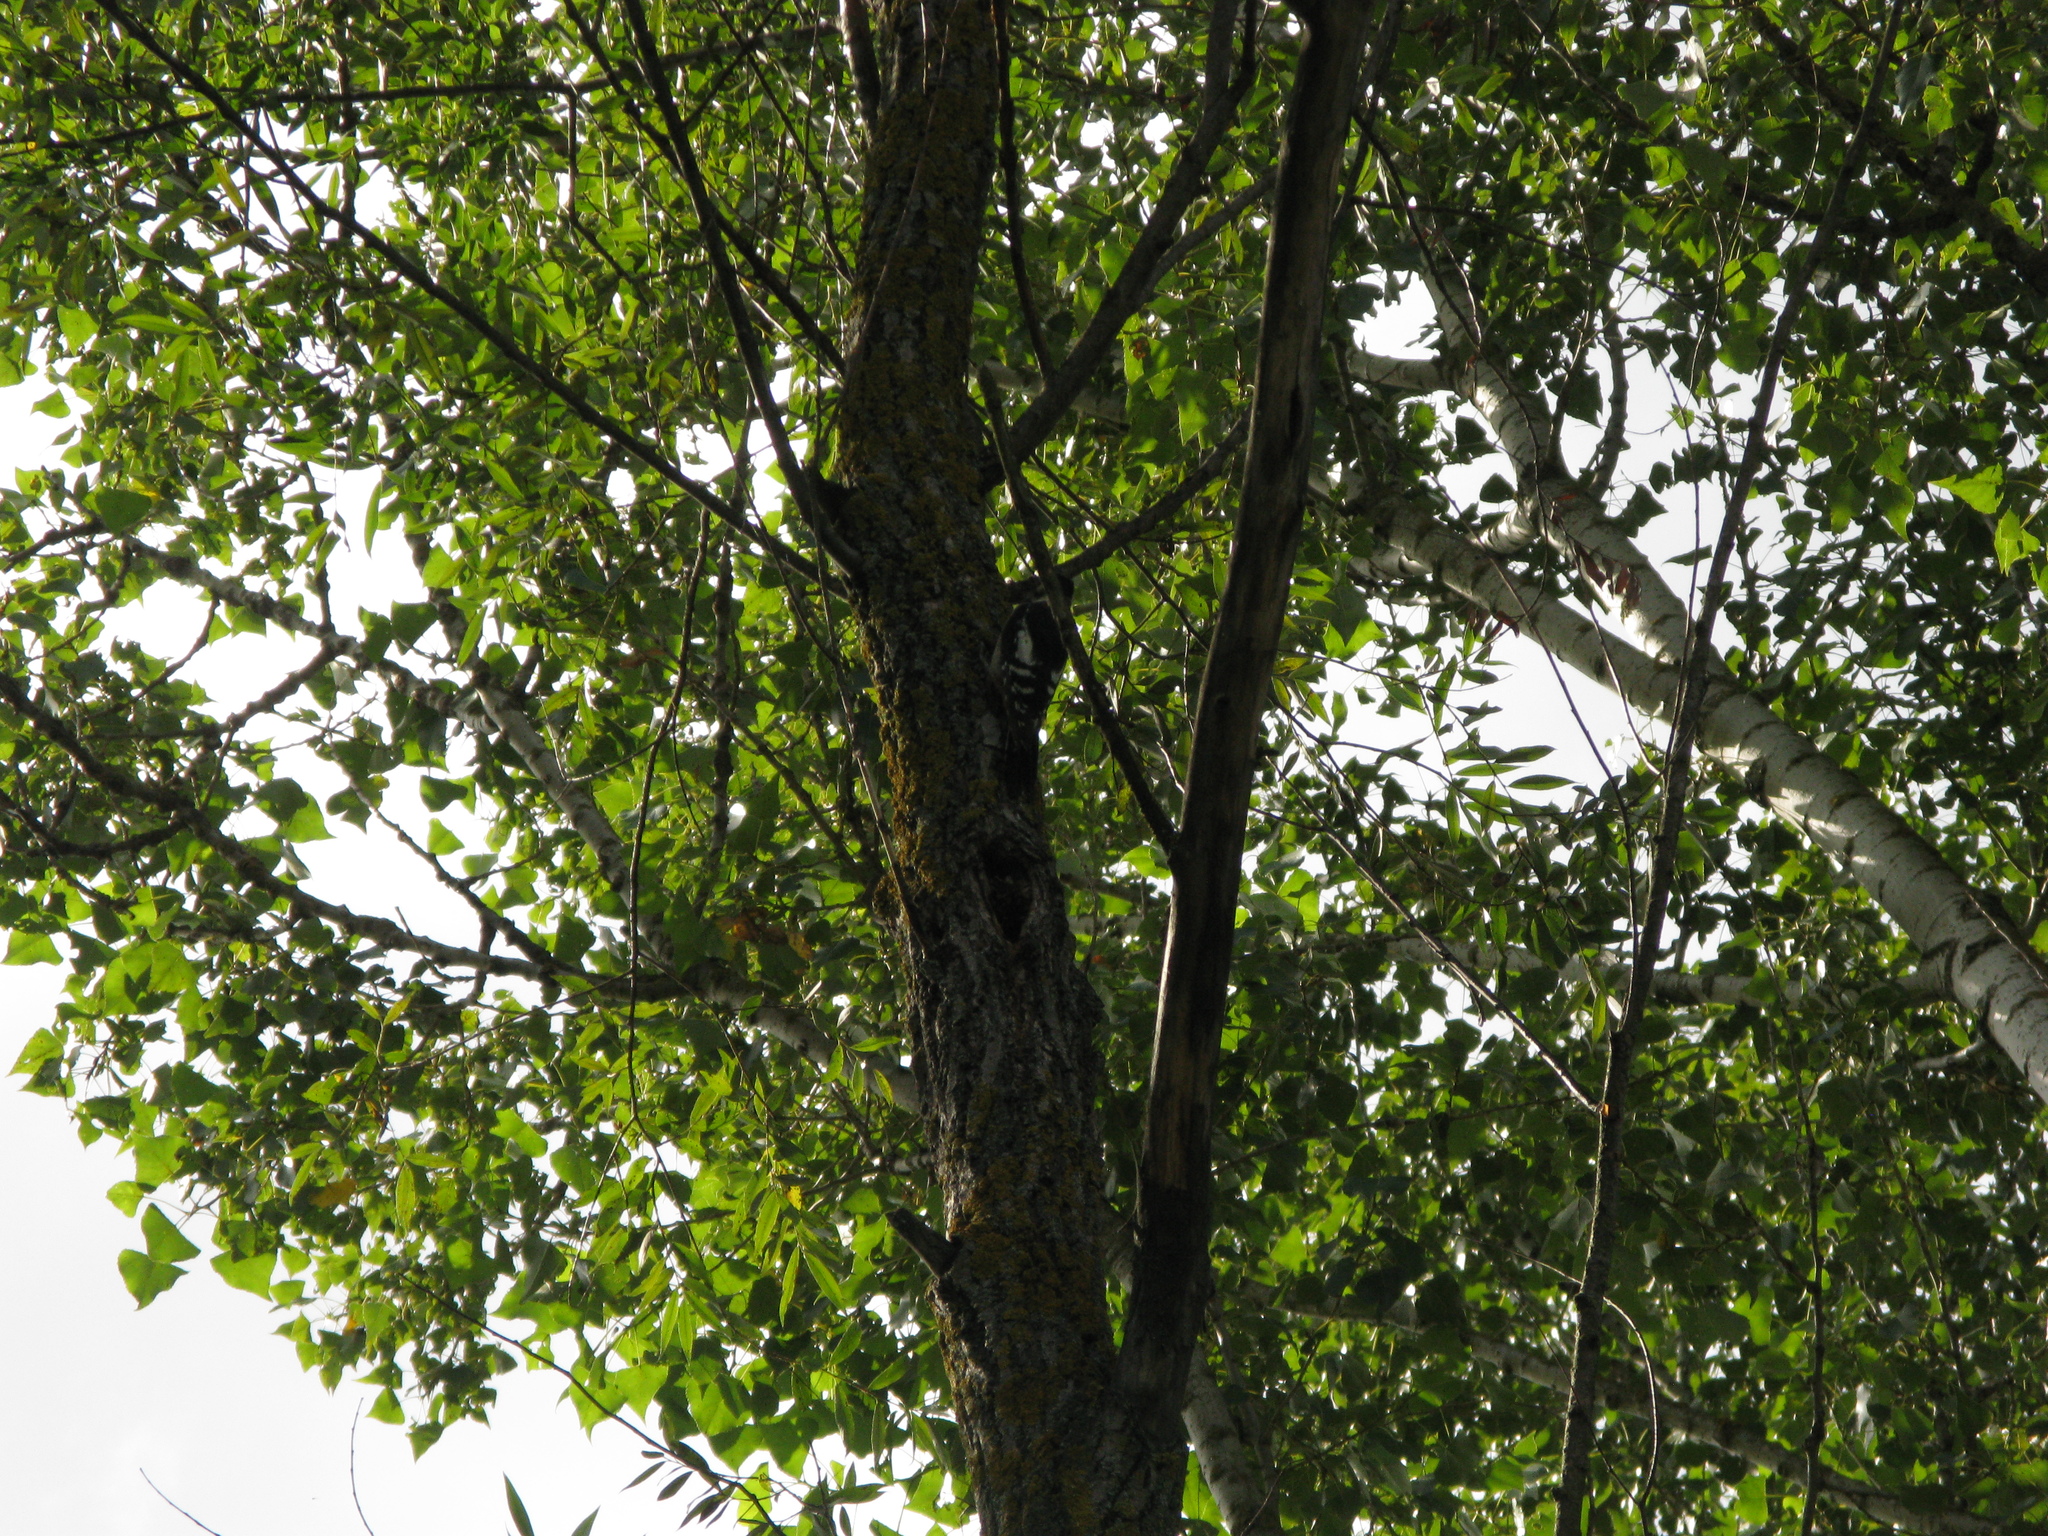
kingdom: Animalia
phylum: Chordata
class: Aves
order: Piciformes
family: Picidae
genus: Dendrocopos
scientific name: Dendrocopos major
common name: Great spotted woodpecker
